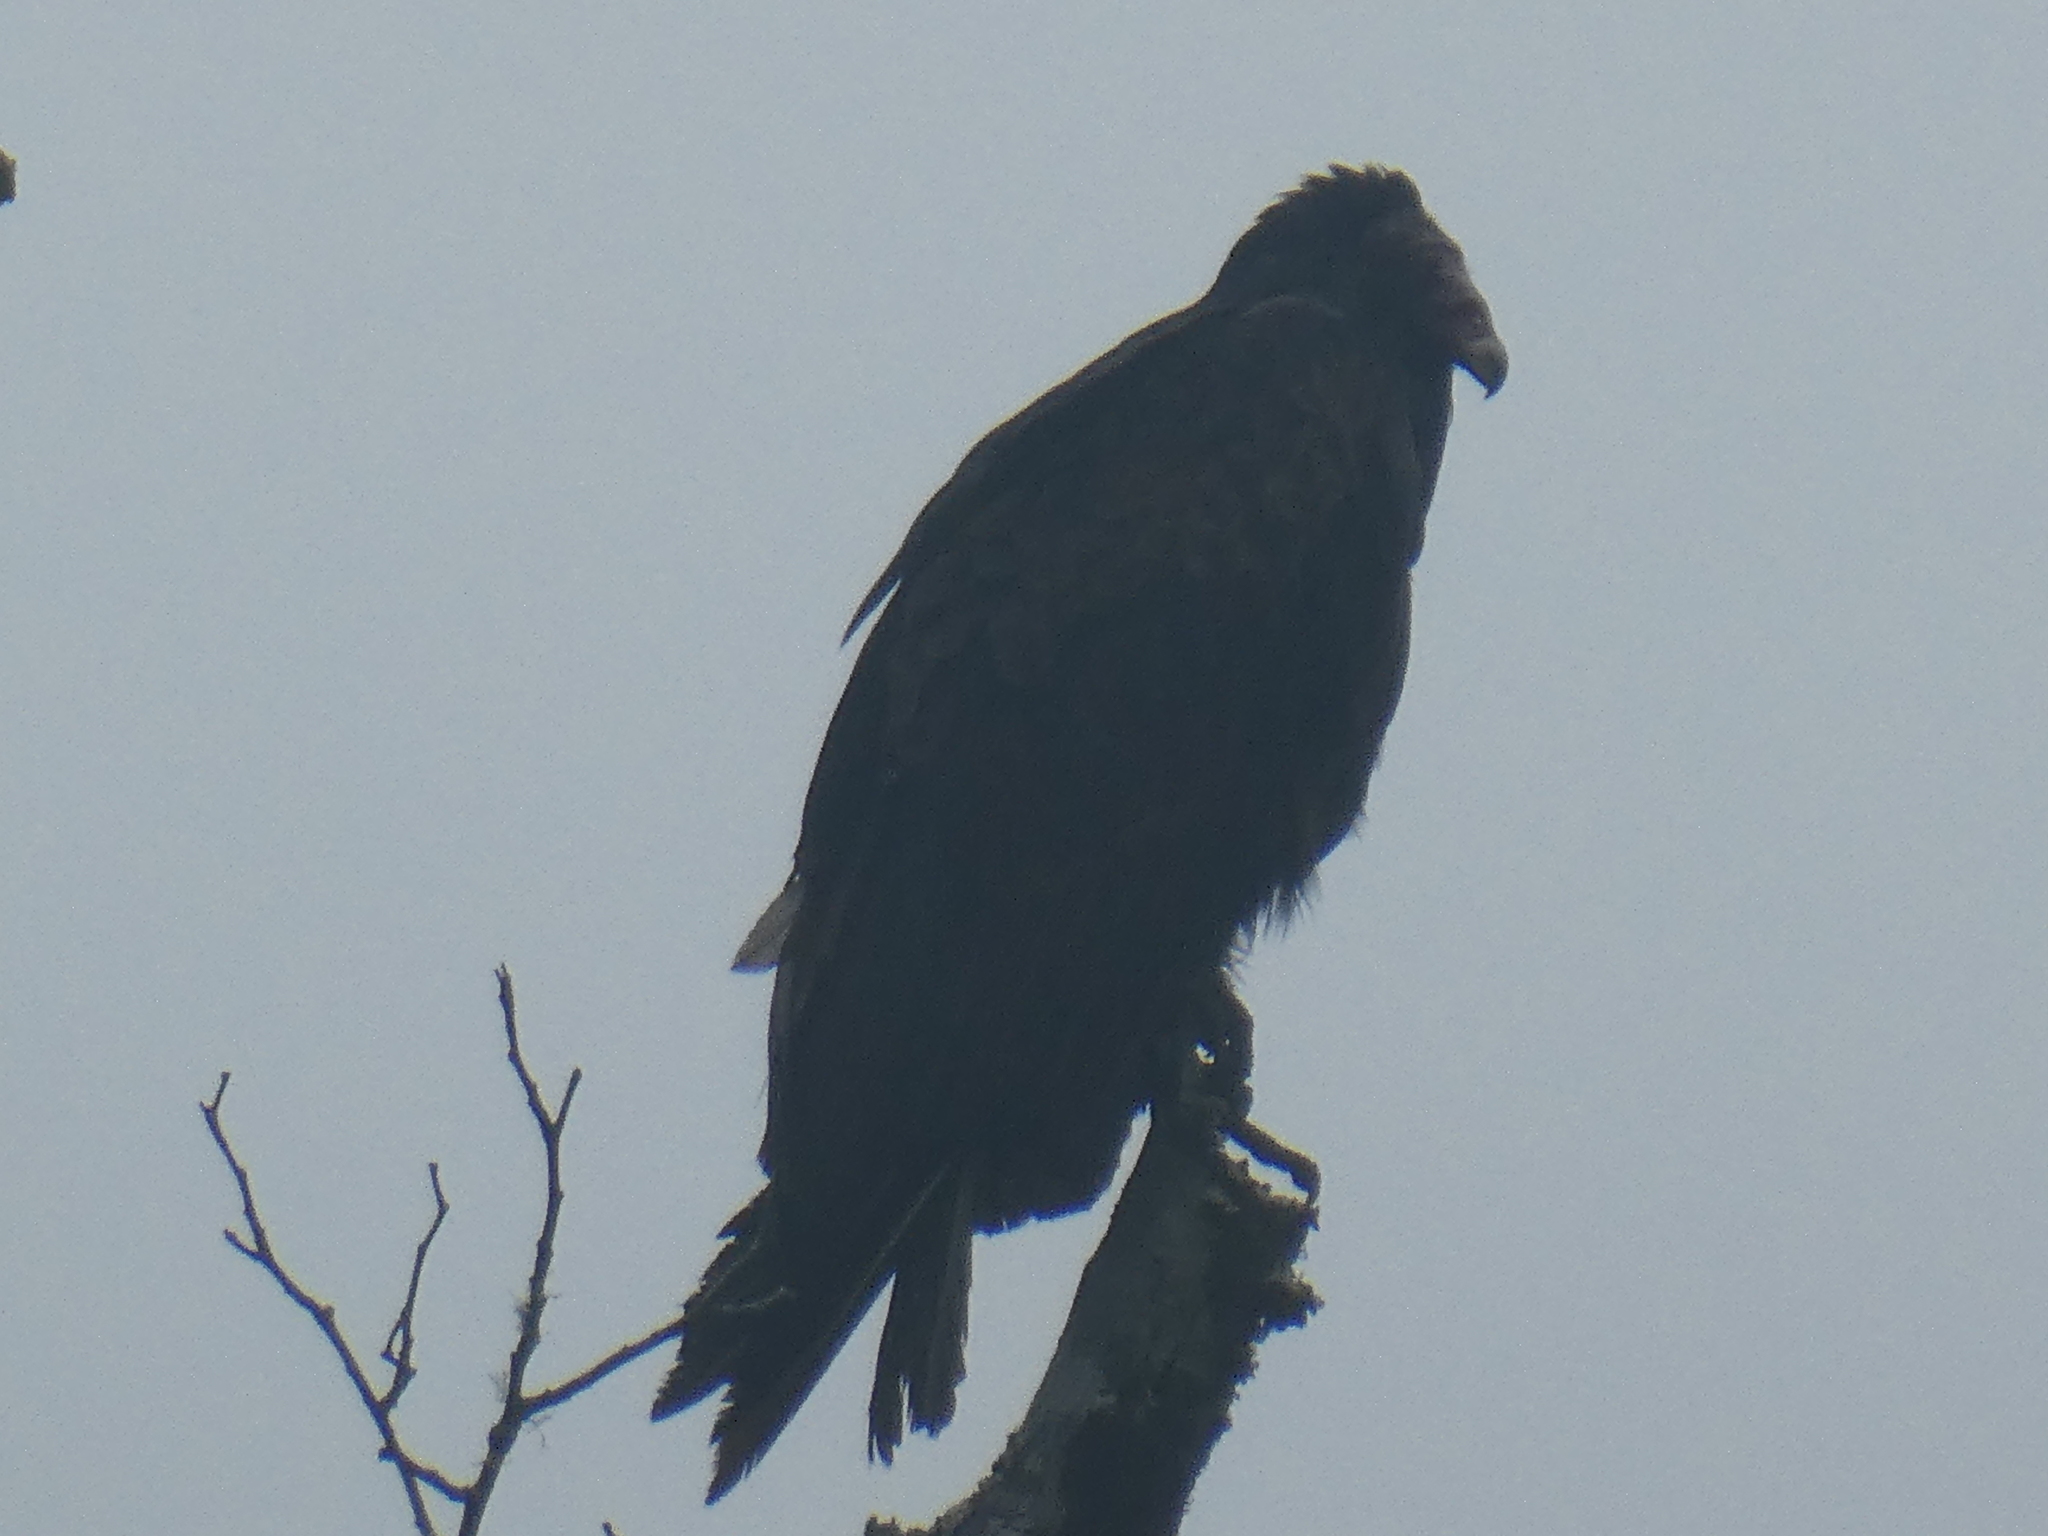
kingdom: Animalia
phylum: Chordata
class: Aves
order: Accipitriformes
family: Cathartidae
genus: Cathartes
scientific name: Cathartes aura
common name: Turkey vulture
